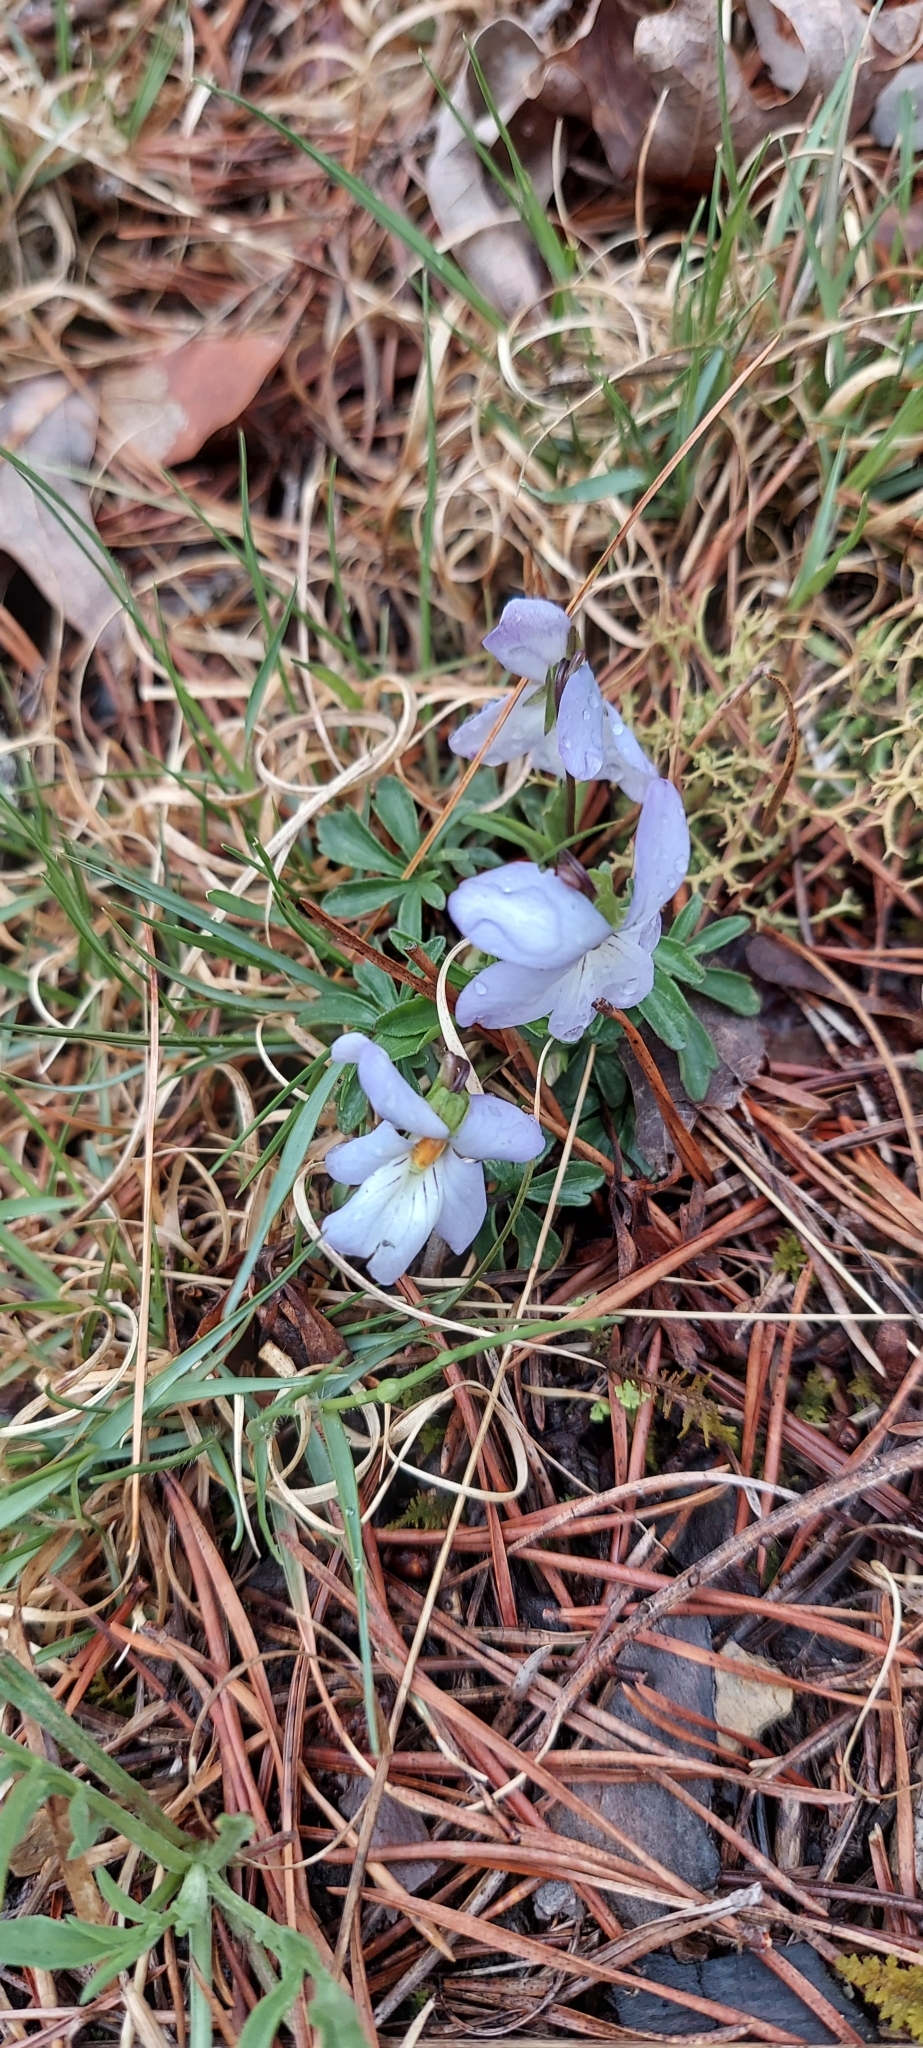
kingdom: Plantae
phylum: Tracheophyta
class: Magnoliopsida
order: Malpighiales
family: Violaceae
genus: Viola
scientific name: Viola pedata
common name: Pansy violet
